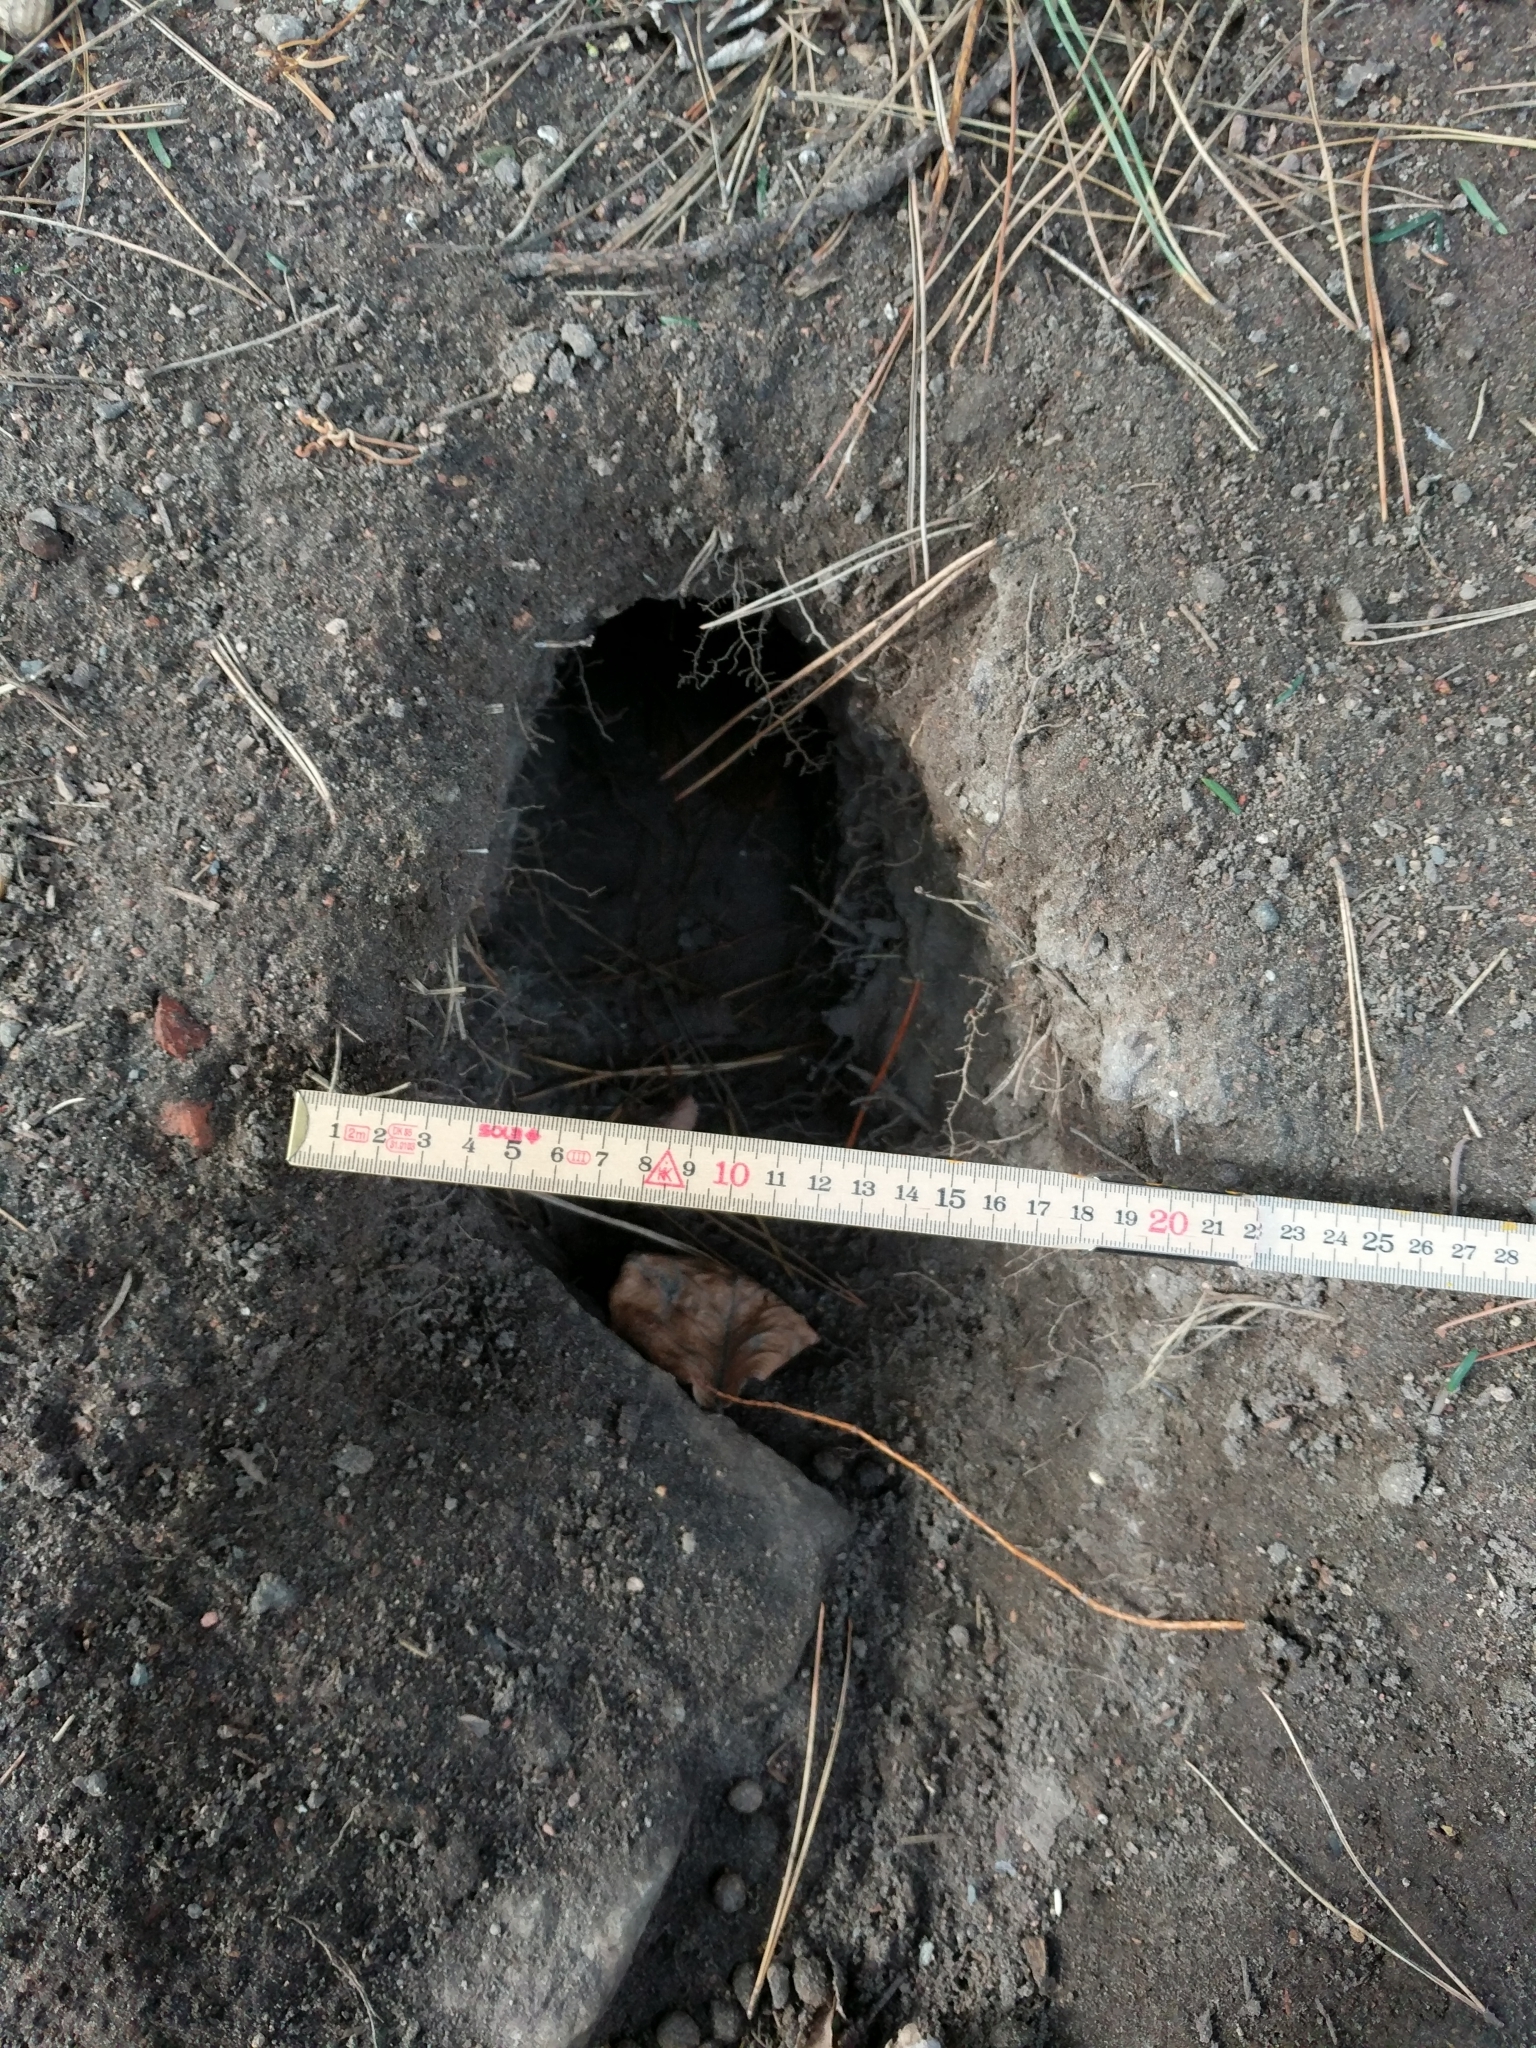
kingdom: Animalia
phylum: Chordata
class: Mammalia
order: Lagomorpha
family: Leporidae
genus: Oryctolagus
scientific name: Oryctolagus cuniculus
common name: European rabbit
